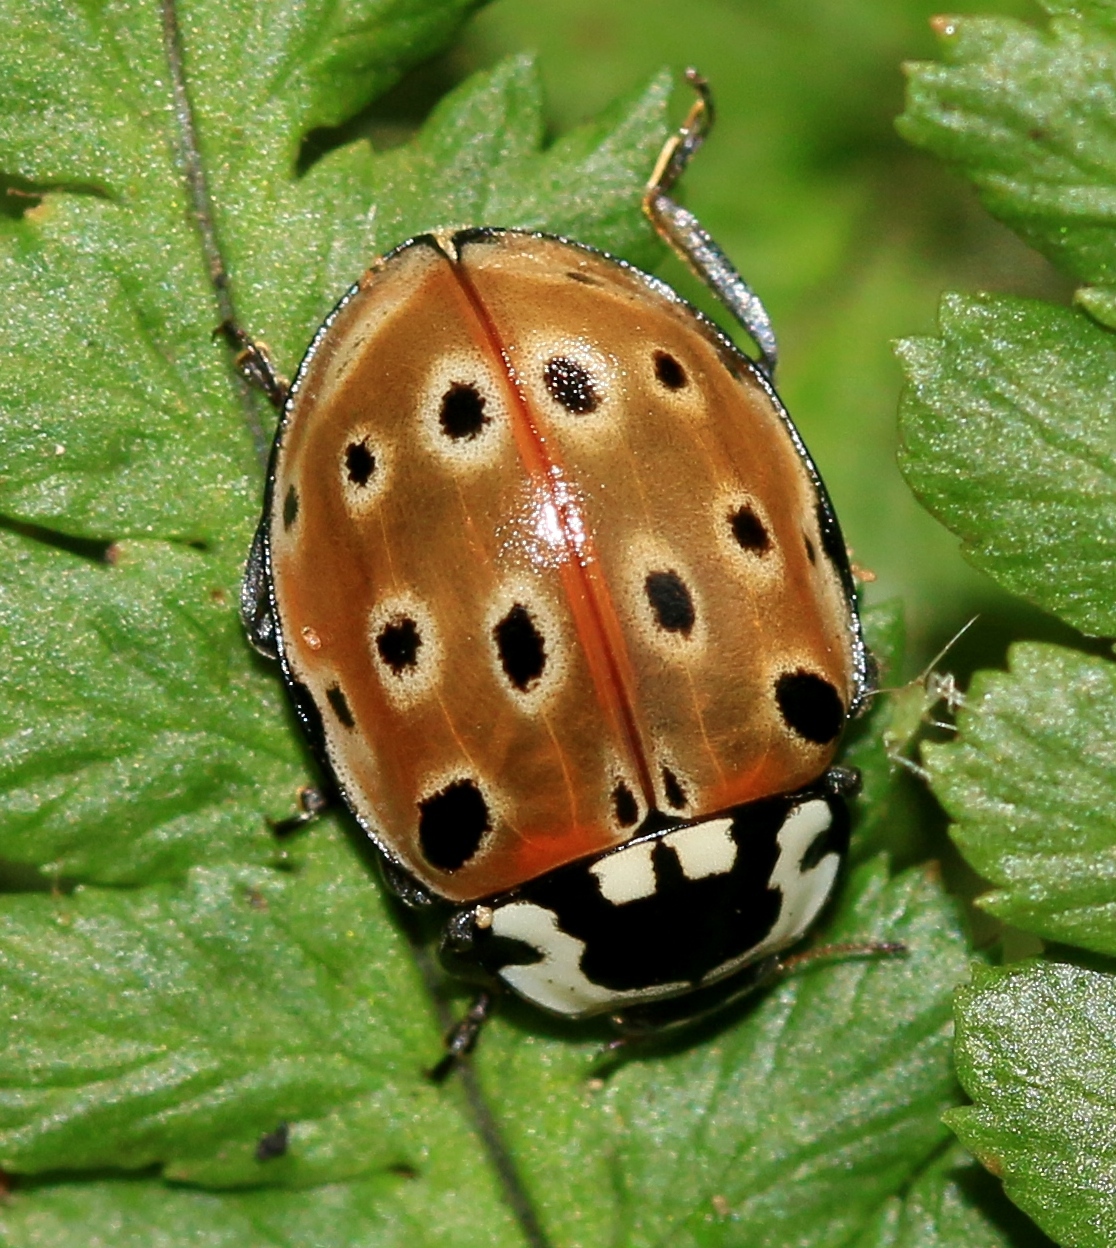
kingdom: Animalia
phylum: Arthropoda
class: Insecta
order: Coleoptera
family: Coccinellidae
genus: Anatis
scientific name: Anatis ocellata
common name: Eyed ladybird
